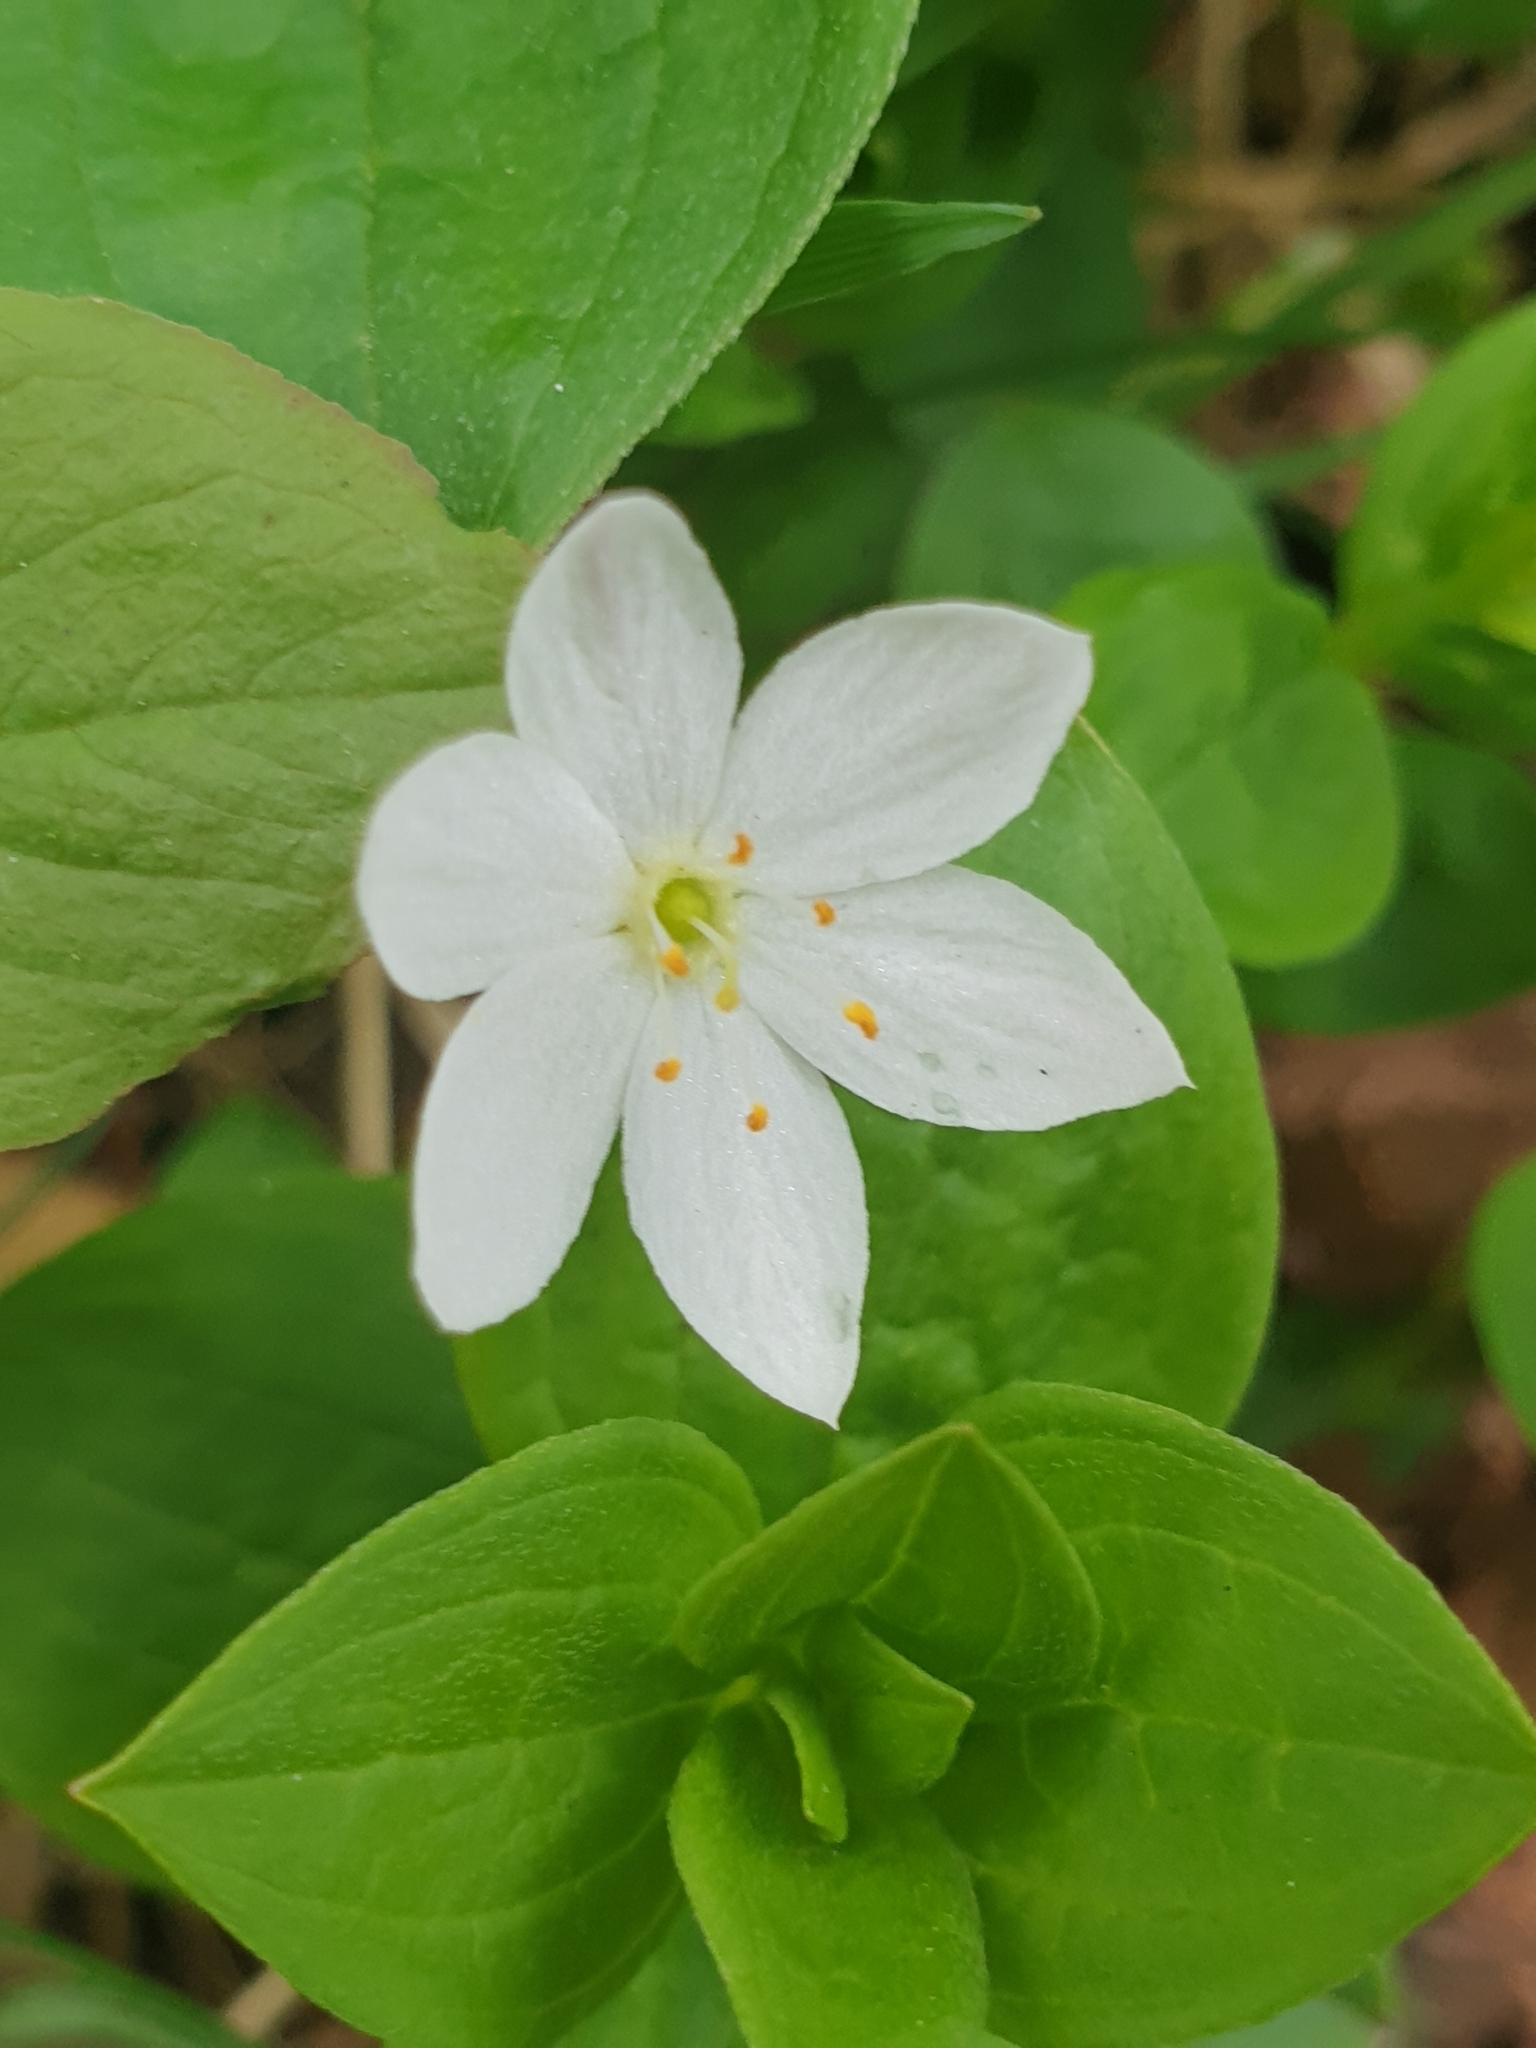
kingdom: Plantae
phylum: Tracheophyta
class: Magnoliopsida
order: Ericales
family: Primulaceae
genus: Lysimachia
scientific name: Lysimachia europaea
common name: Arctic starflower
